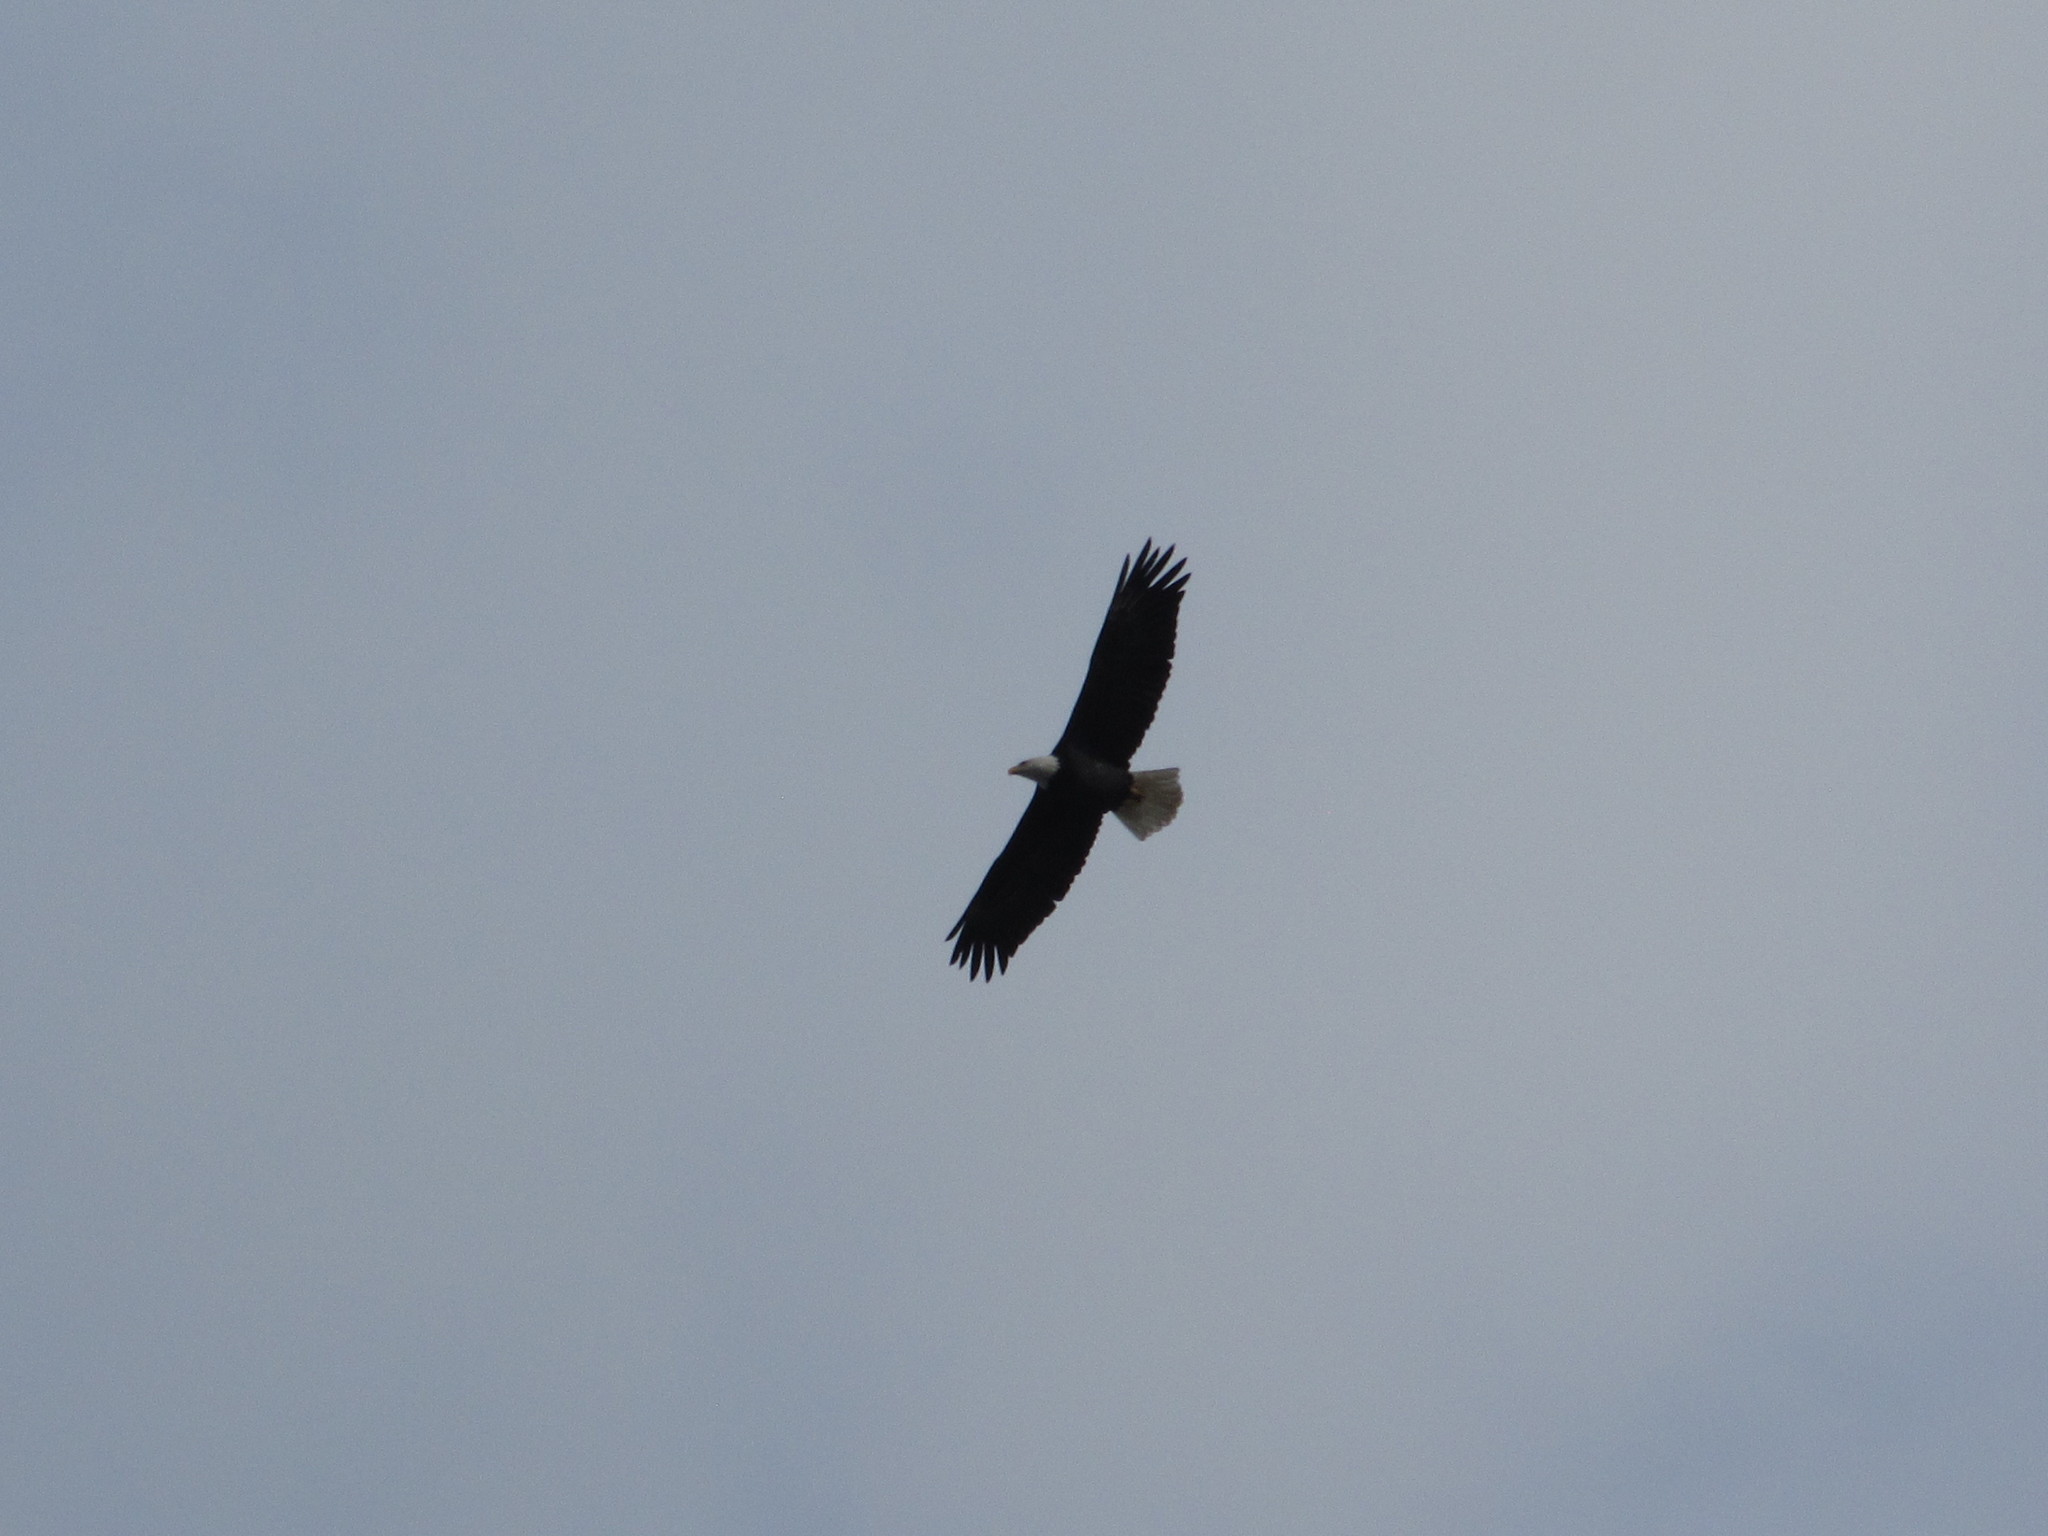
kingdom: Animalia
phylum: Chordata
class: Aves
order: Accipitriformes
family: Accipitridae
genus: Haliaeetus
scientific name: Haliaeetus leucocephalus
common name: Bald eagle
